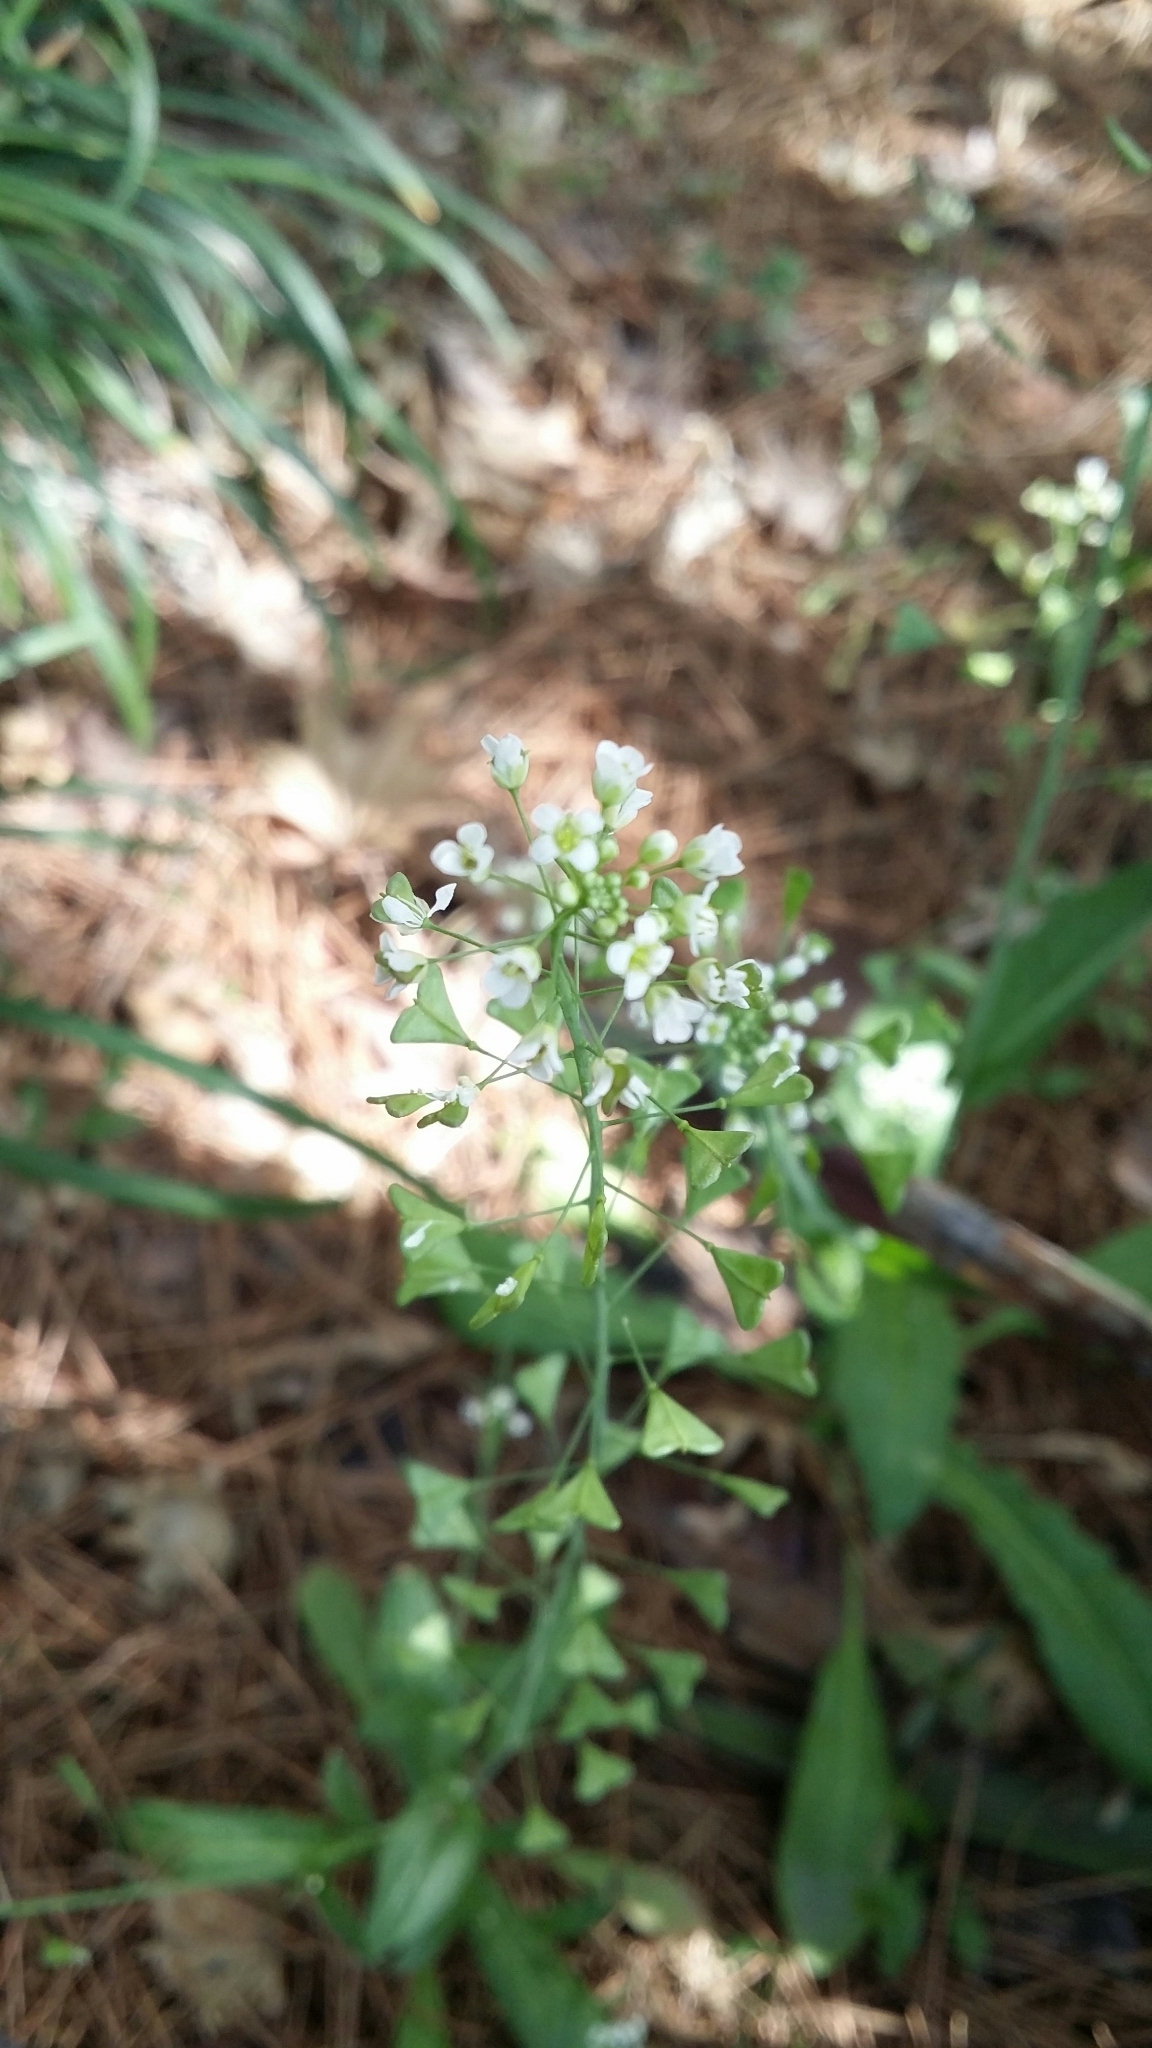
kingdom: Plantae
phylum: Tracheophyta
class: Magnoliopsida
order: Brassicales
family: Brassicaceae
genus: Capsella
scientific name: Capsella bursa-pastoris
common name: Shepherd's purse
